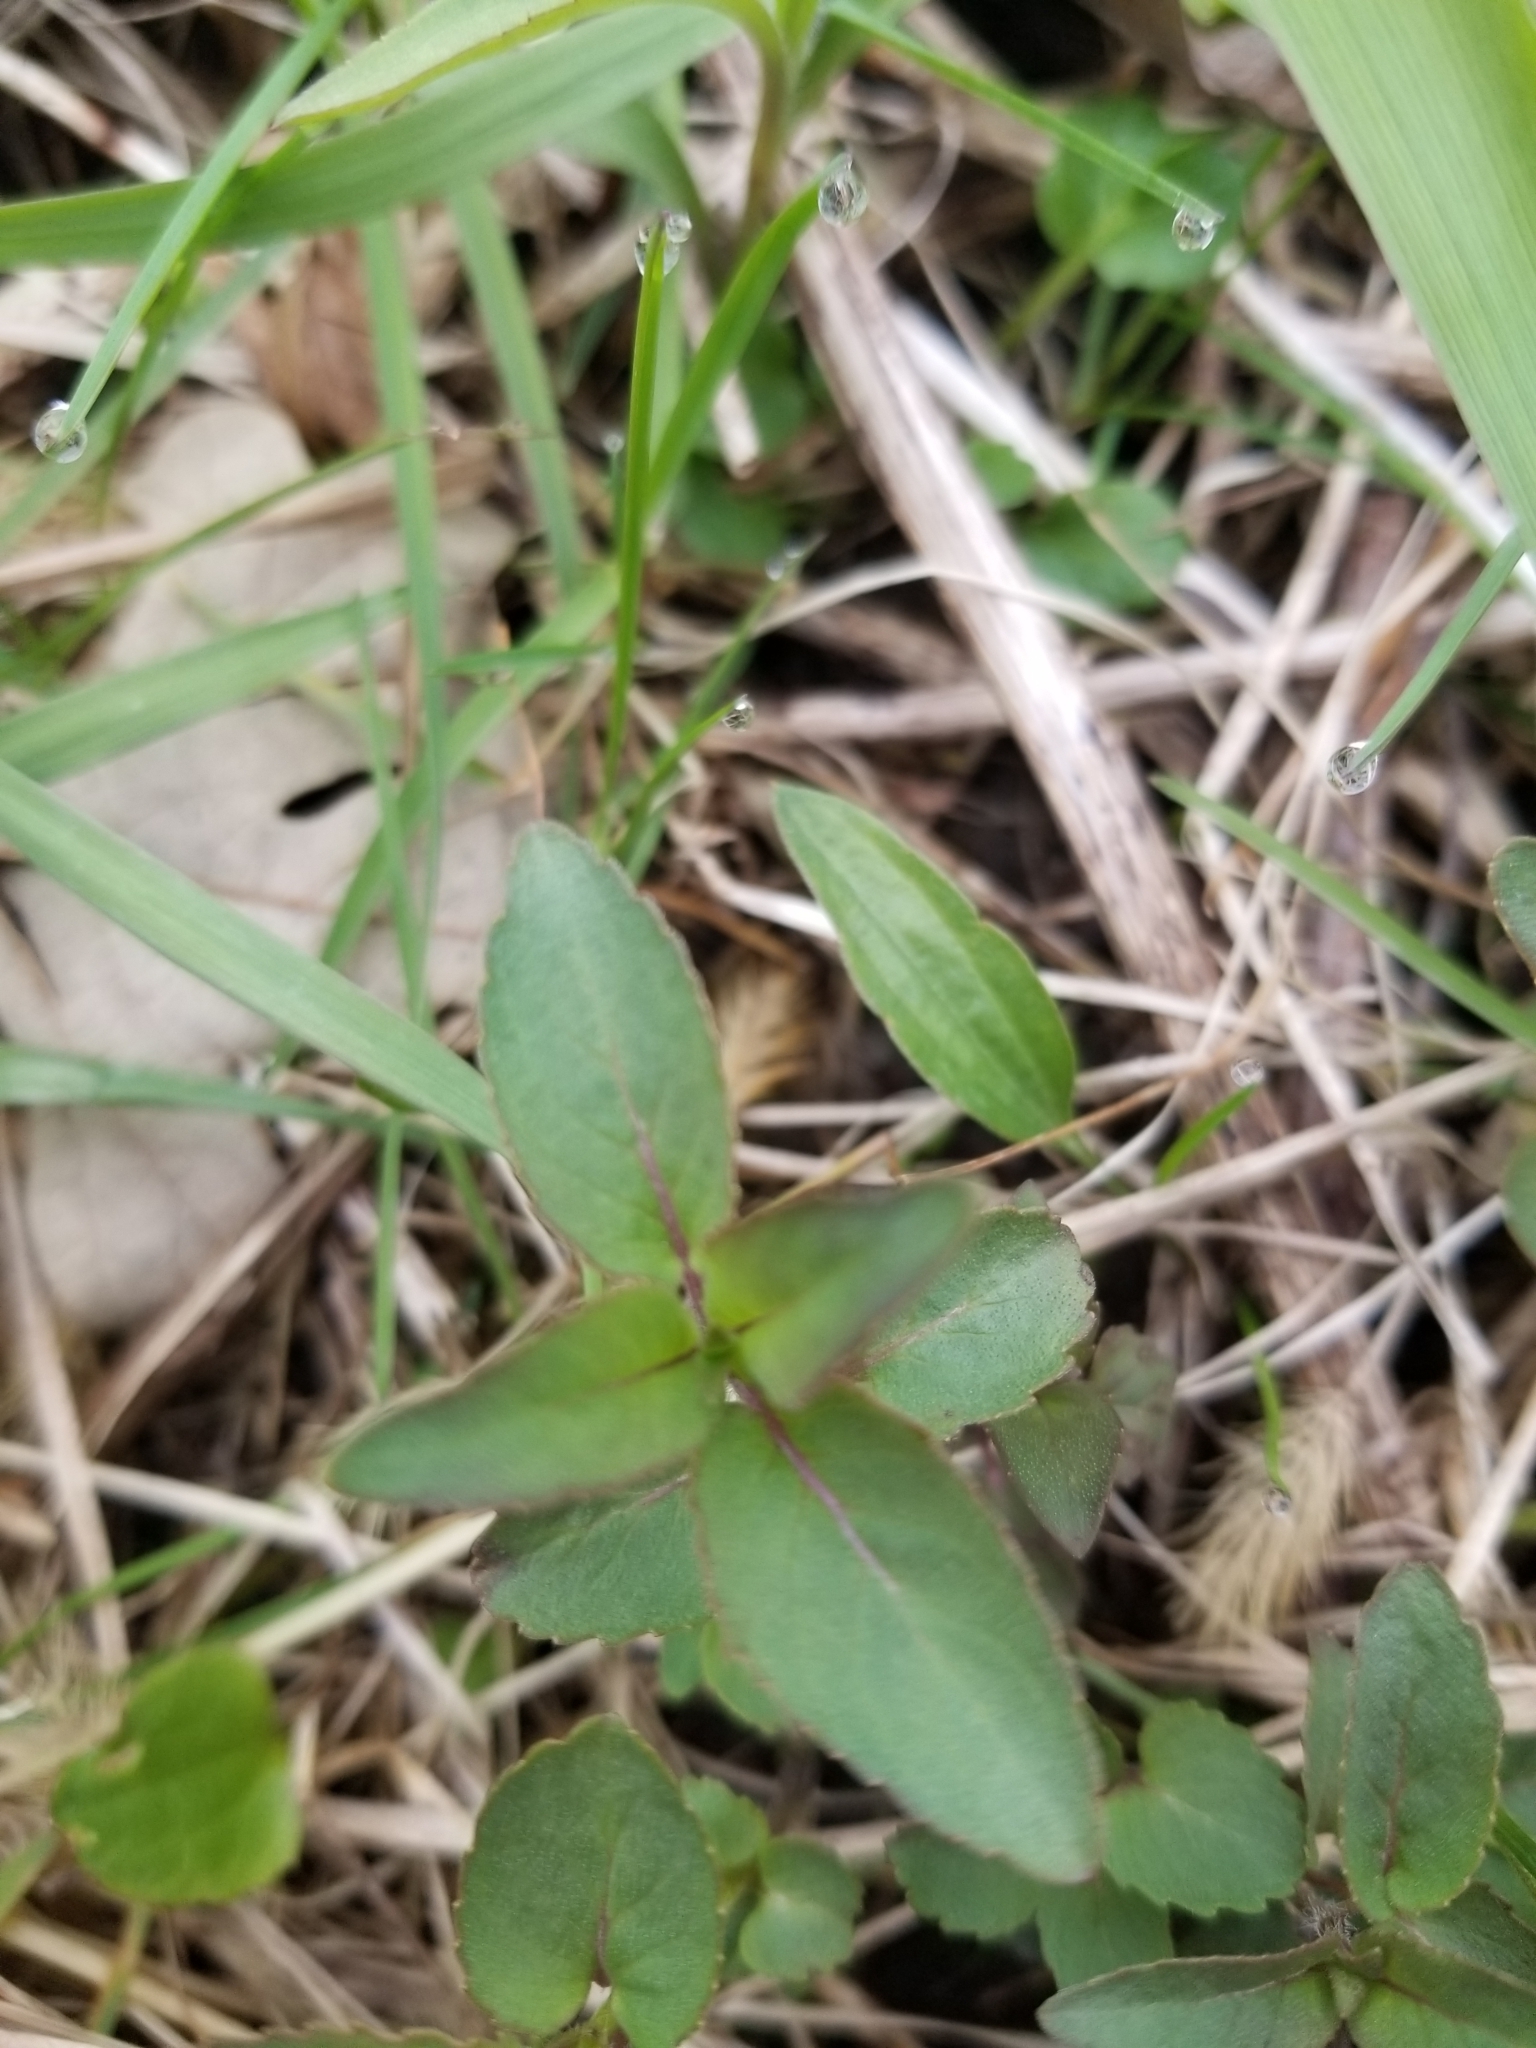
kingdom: Plantae
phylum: Tracheophyta
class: Magnoliopsida
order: Lamiales
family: Lamiaceae
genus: Monarda
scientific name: Monarda fistulosa
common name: Purple beebalm
